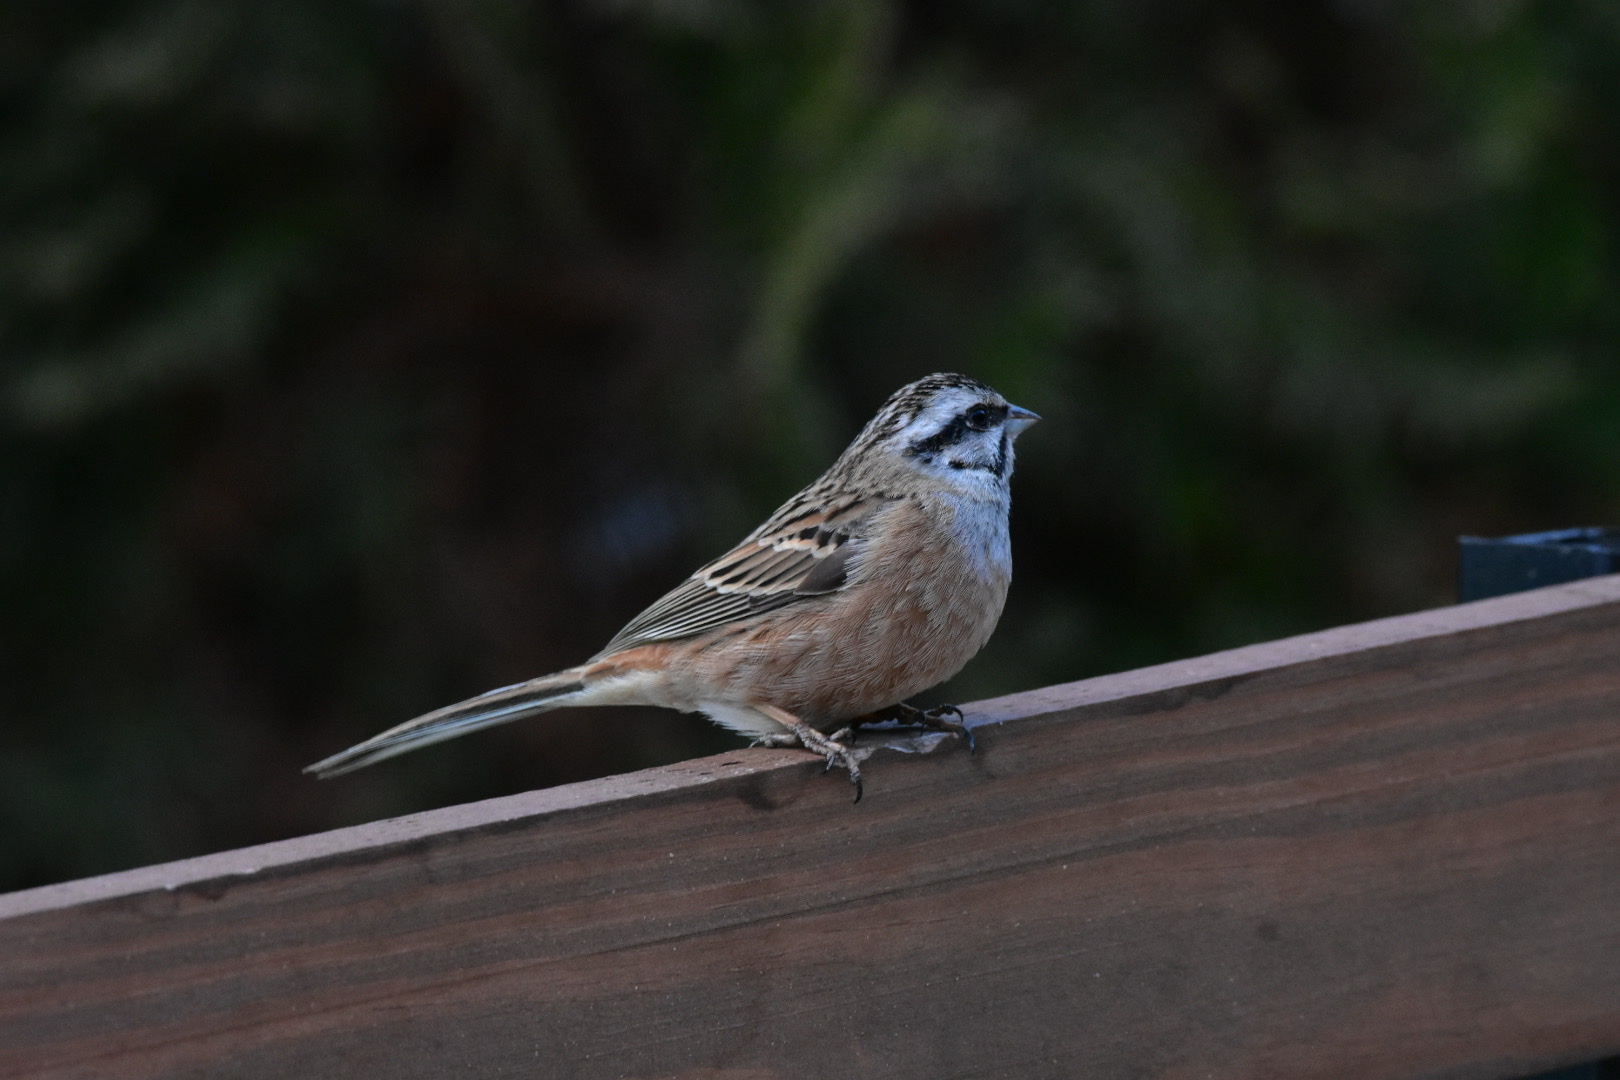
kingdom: Animalia
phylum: Chordata
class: Aves
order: Passeriformes
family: Emberizidae
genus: Emberiza
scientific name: Emberiza cia
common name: Rock bunting
